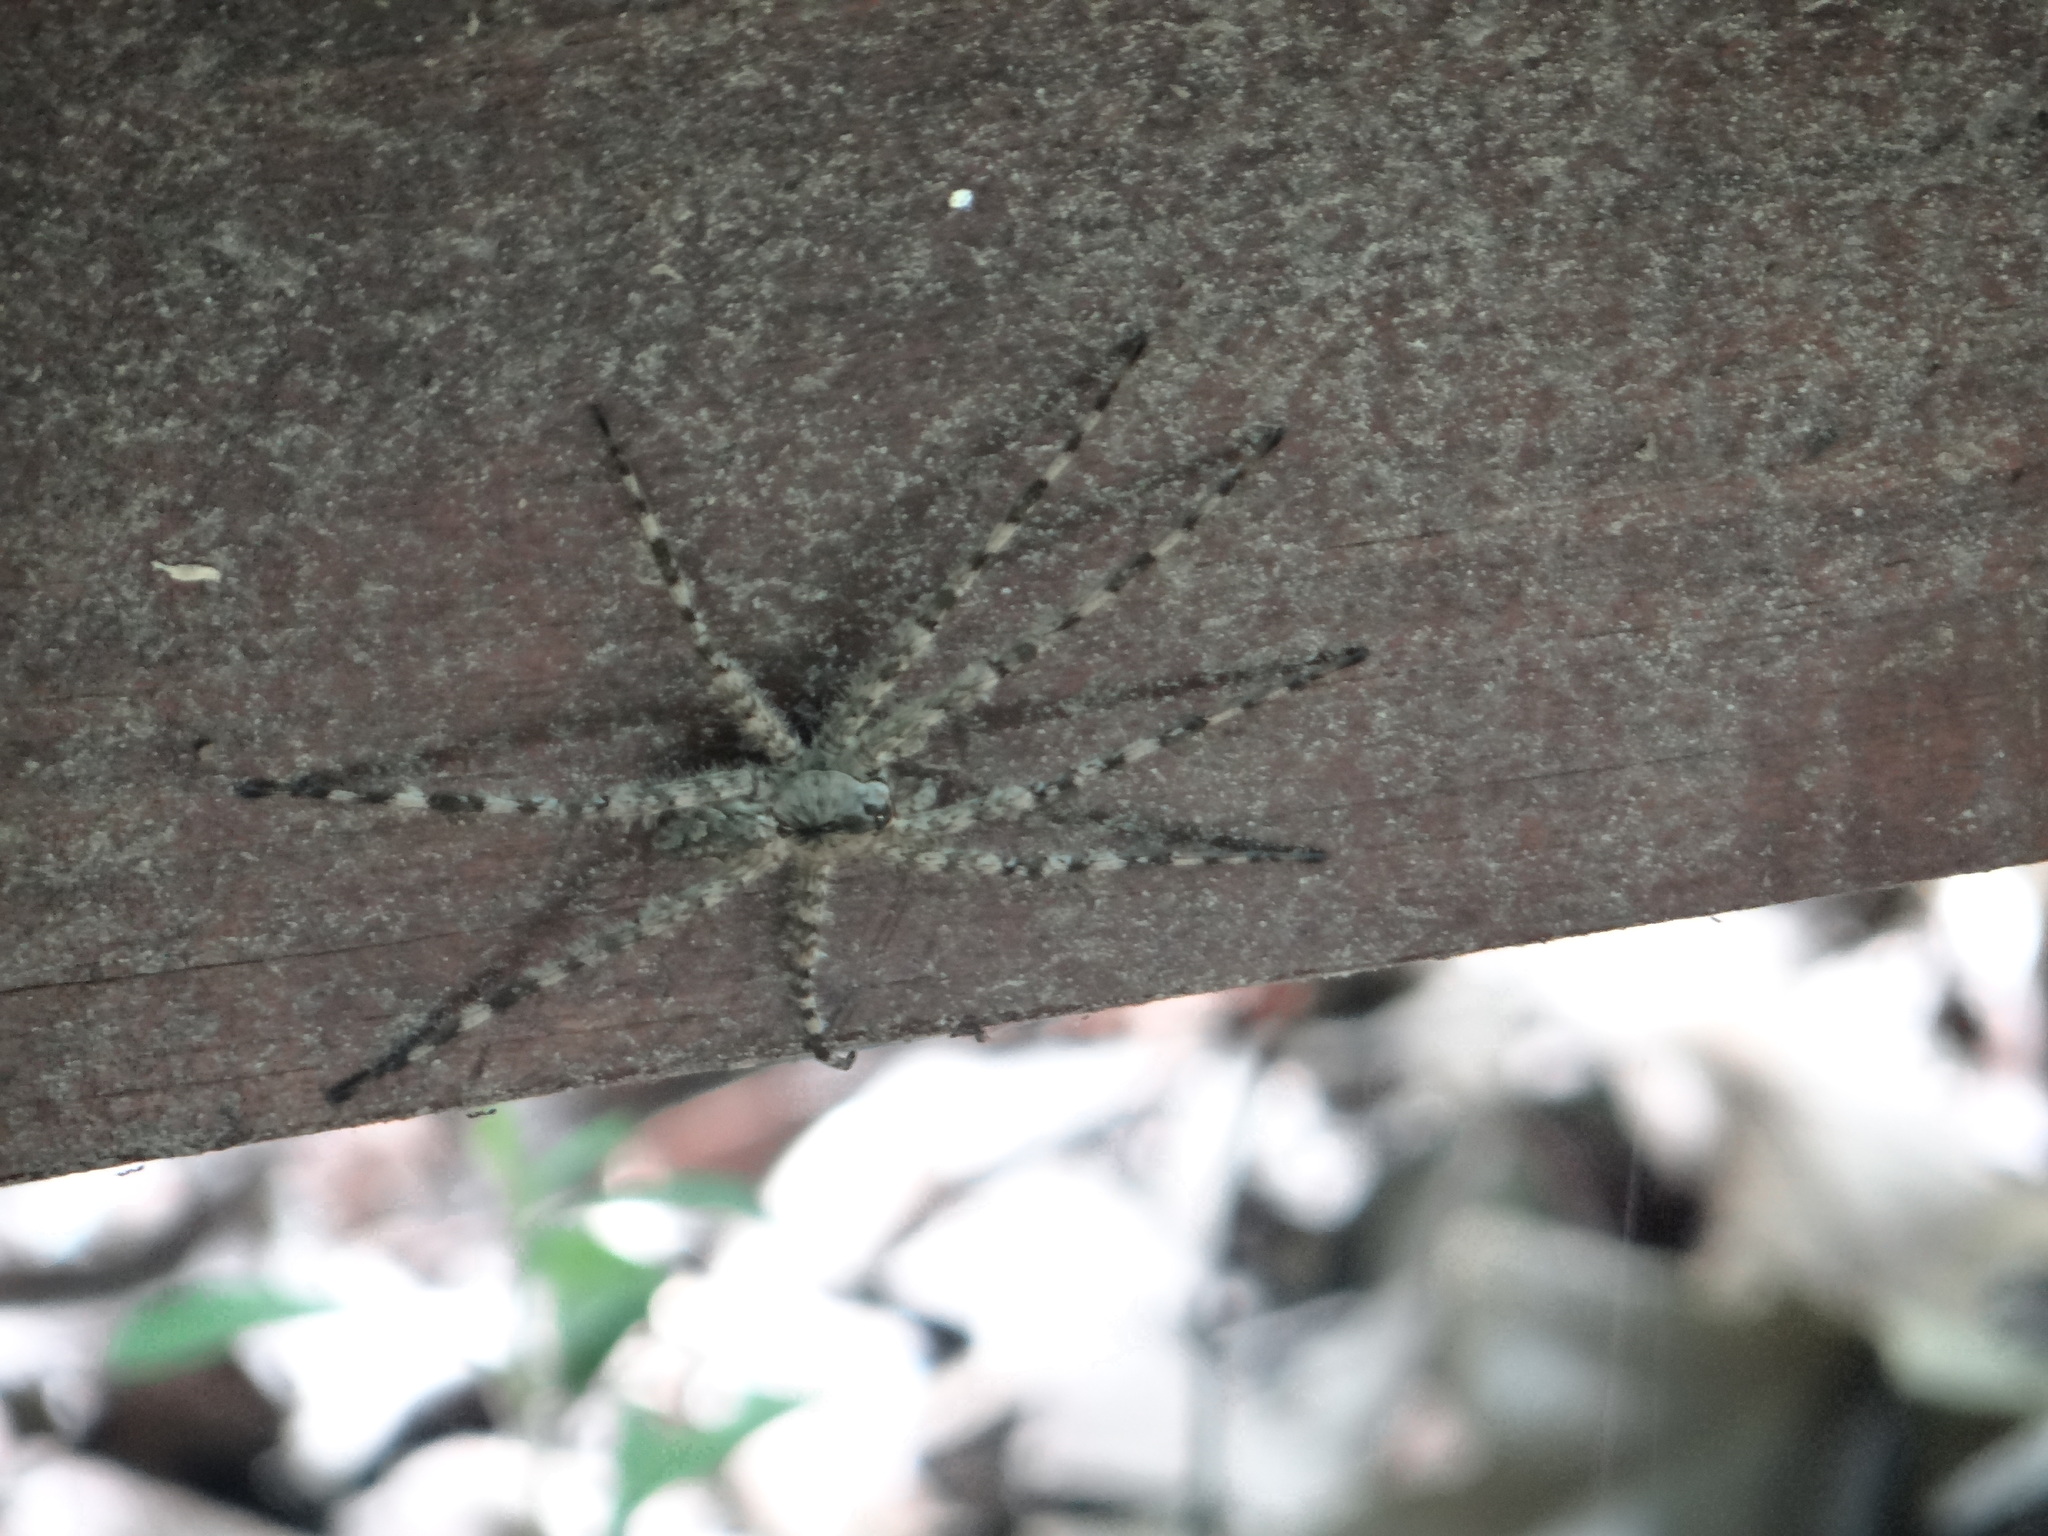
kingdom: Animalia
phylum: Arthropoda
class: Arachnida
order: Araneae
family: Pisauridae
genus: Dolomedes
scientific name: Dolomedes albineus
